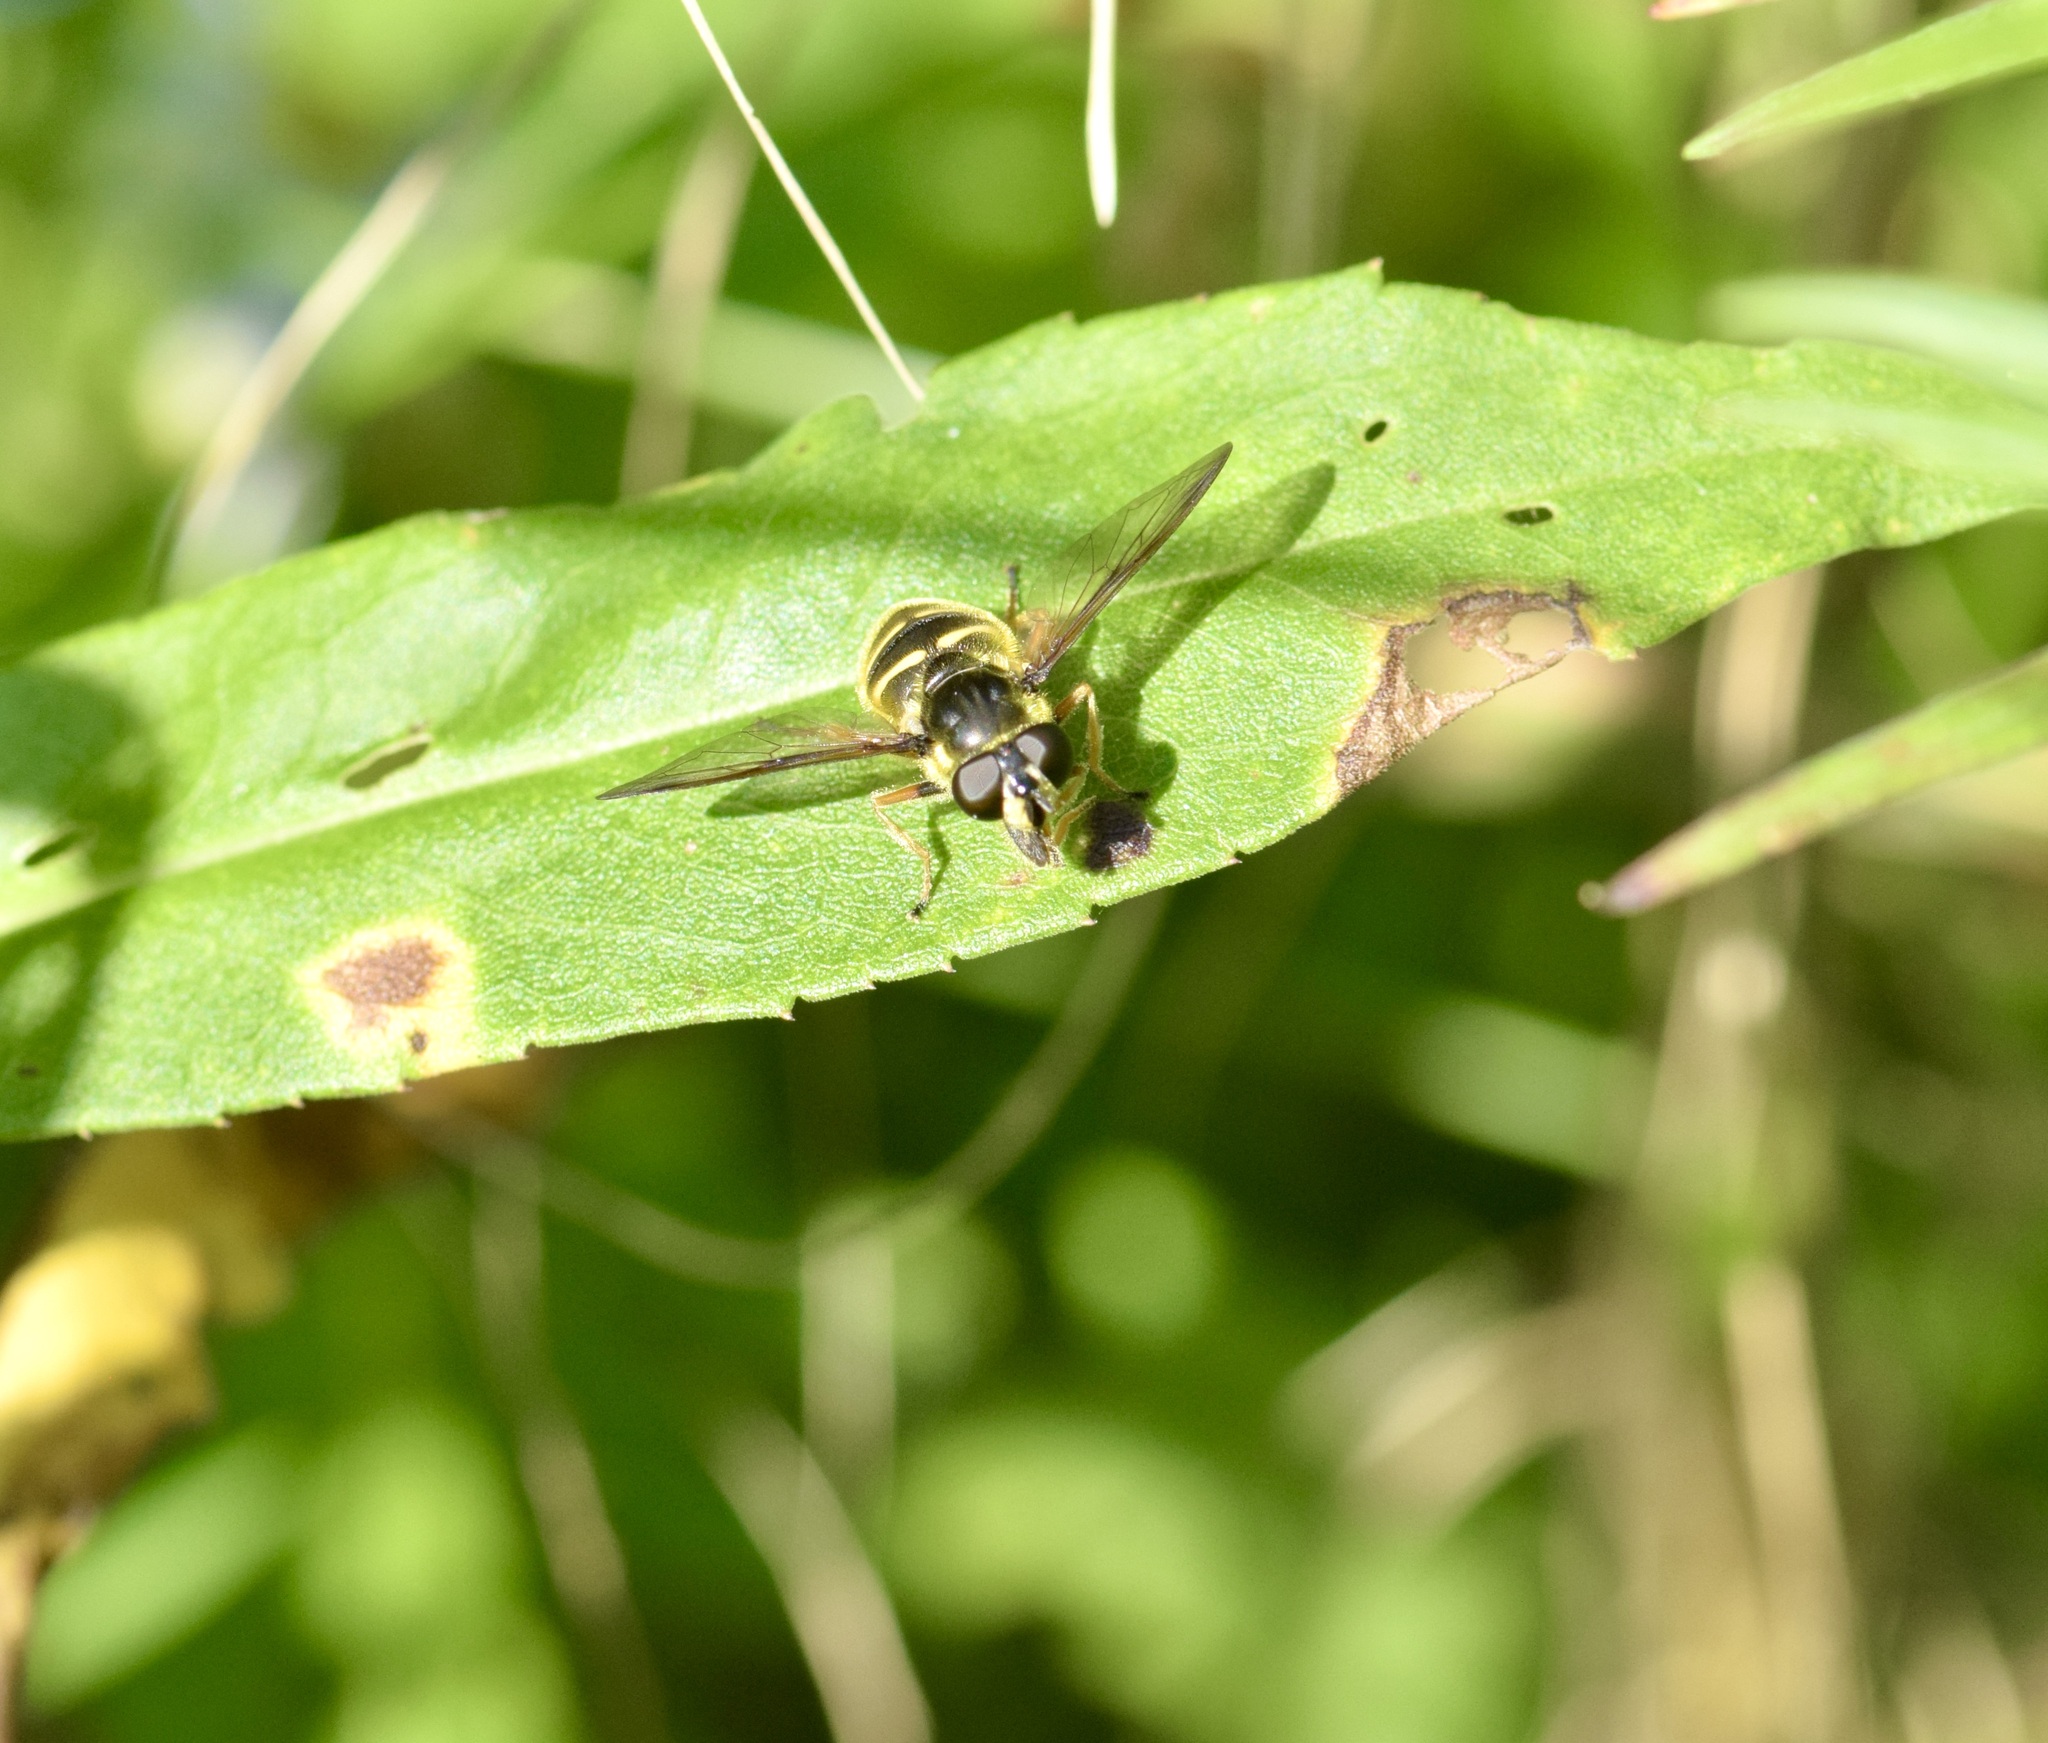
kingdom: Animalia
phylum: Arthropoda
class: Insecta
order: Diptera
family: Syrphidae
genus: Sericomyia
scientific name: Sericomyia chrysotoxoides
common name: Oblique-banded pond fly
